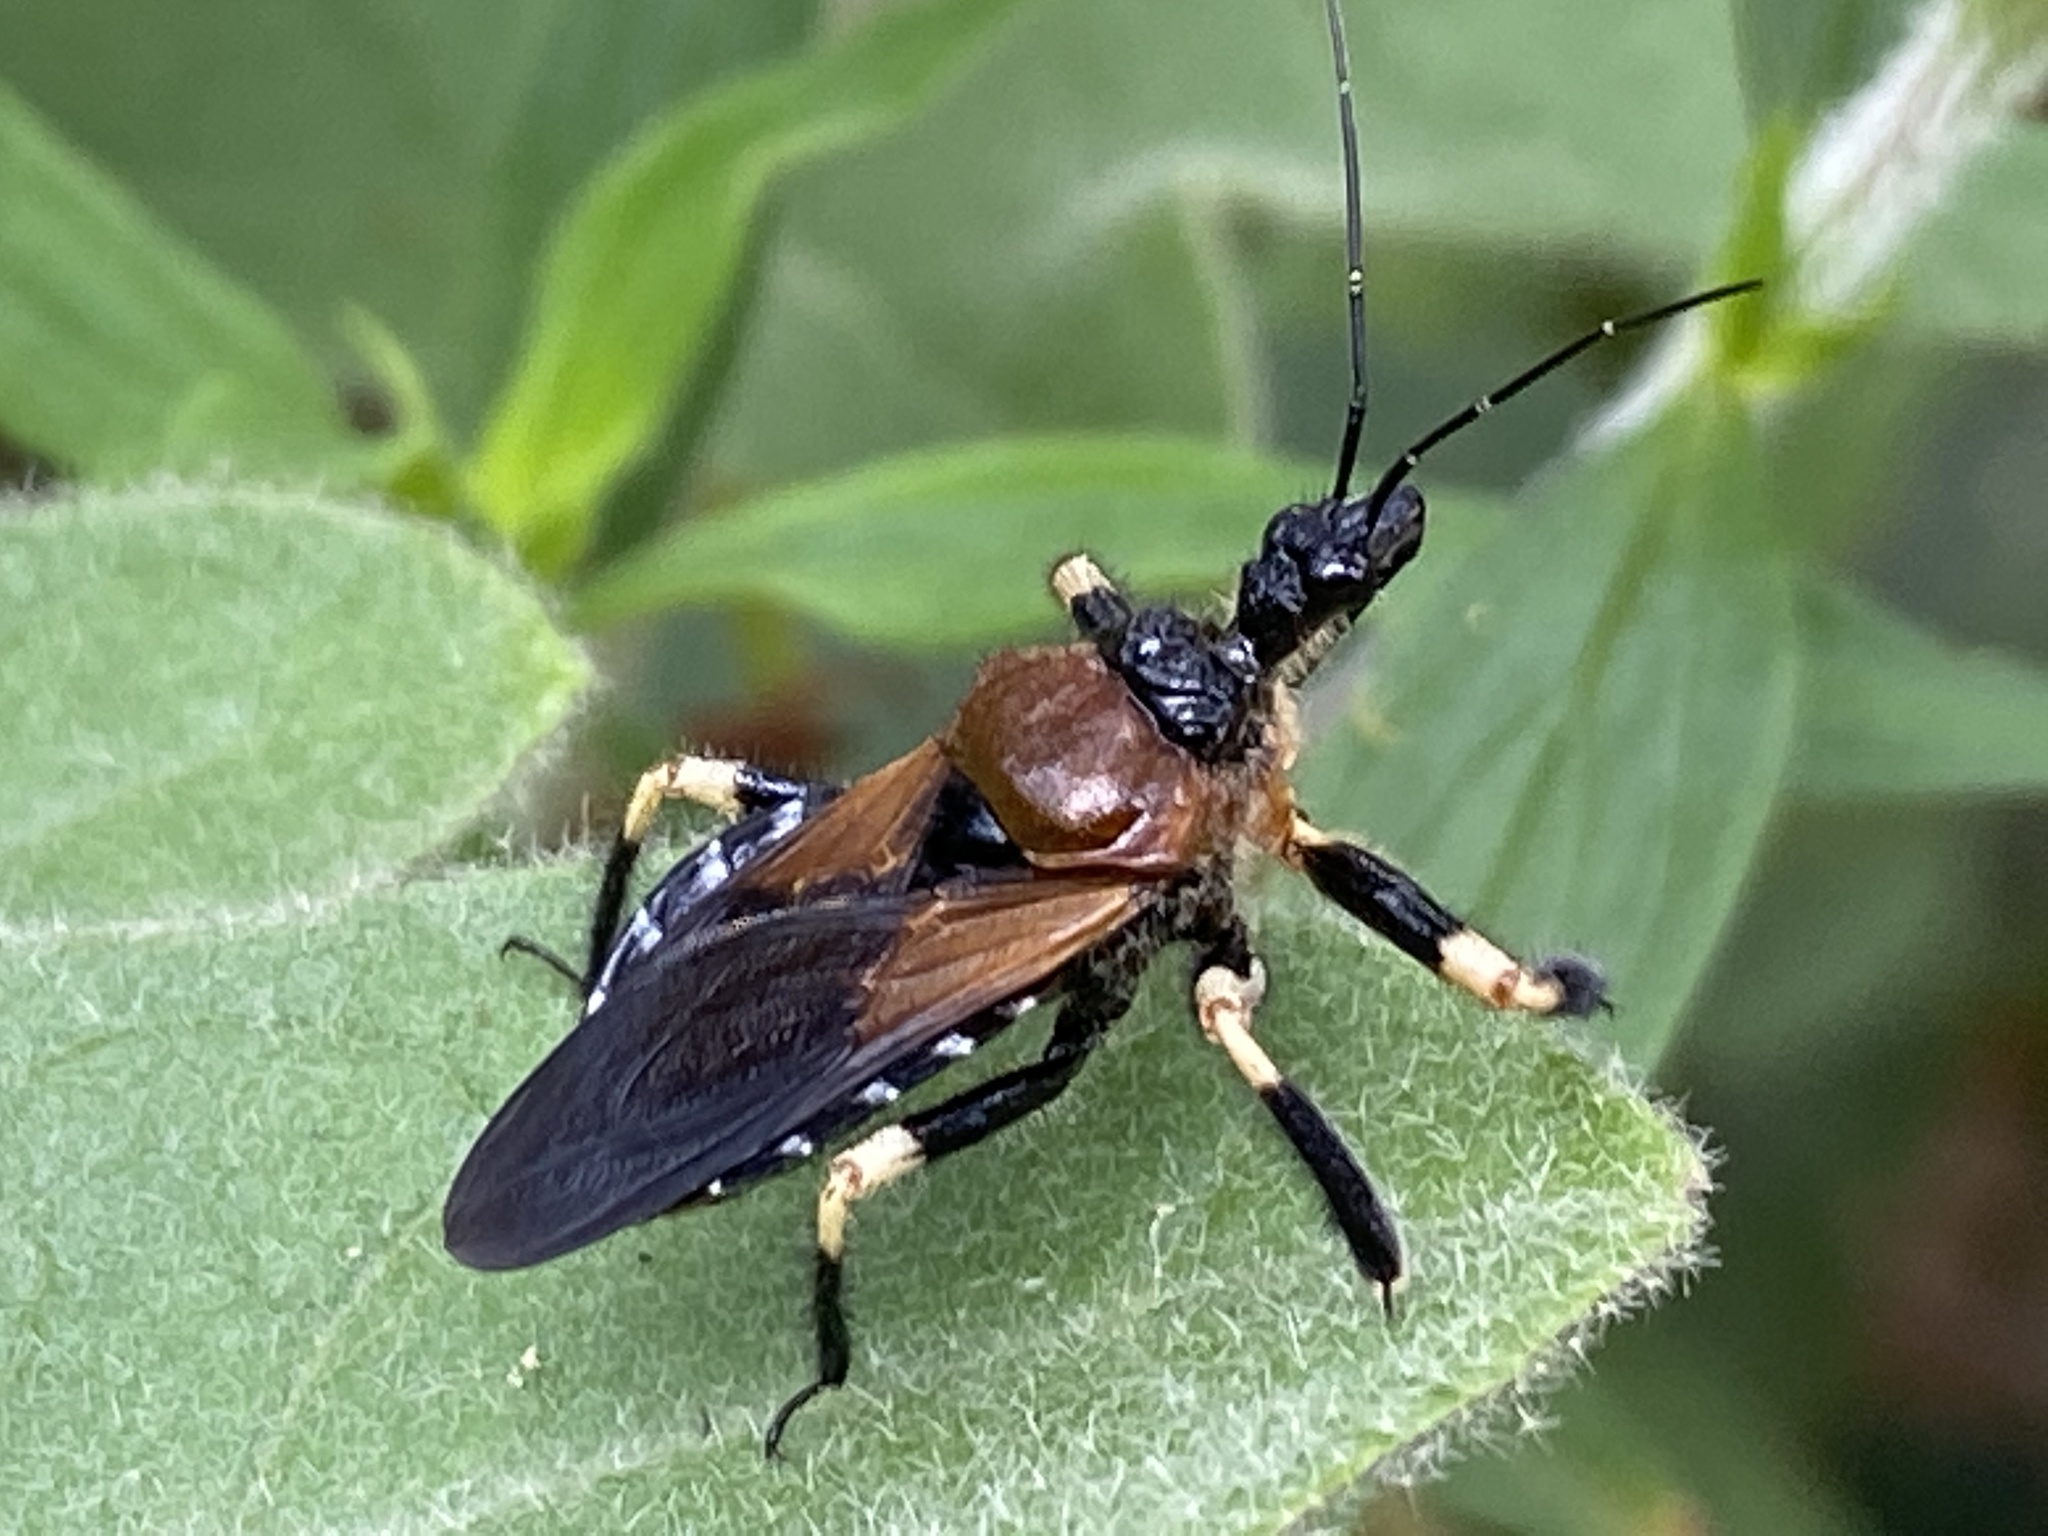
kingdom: Animalia
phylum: Arthropoda
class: Insecta
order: Hemiptera
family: Reduviidae
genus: Apiomerus
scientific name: Apiomerus mutabilis
